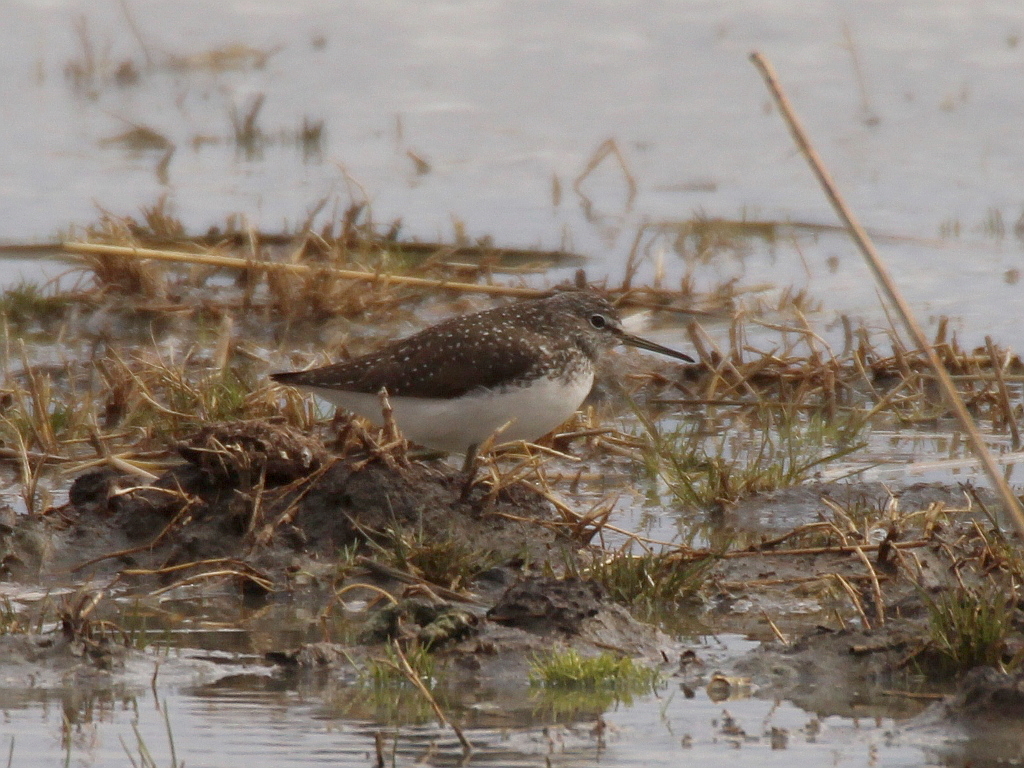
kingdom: Animalia
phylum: Chordata
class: Aves
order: Charadriiformes
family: Scolopacidae
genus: Tringa
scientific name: Tringa ochropus
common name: Green sandpiper
